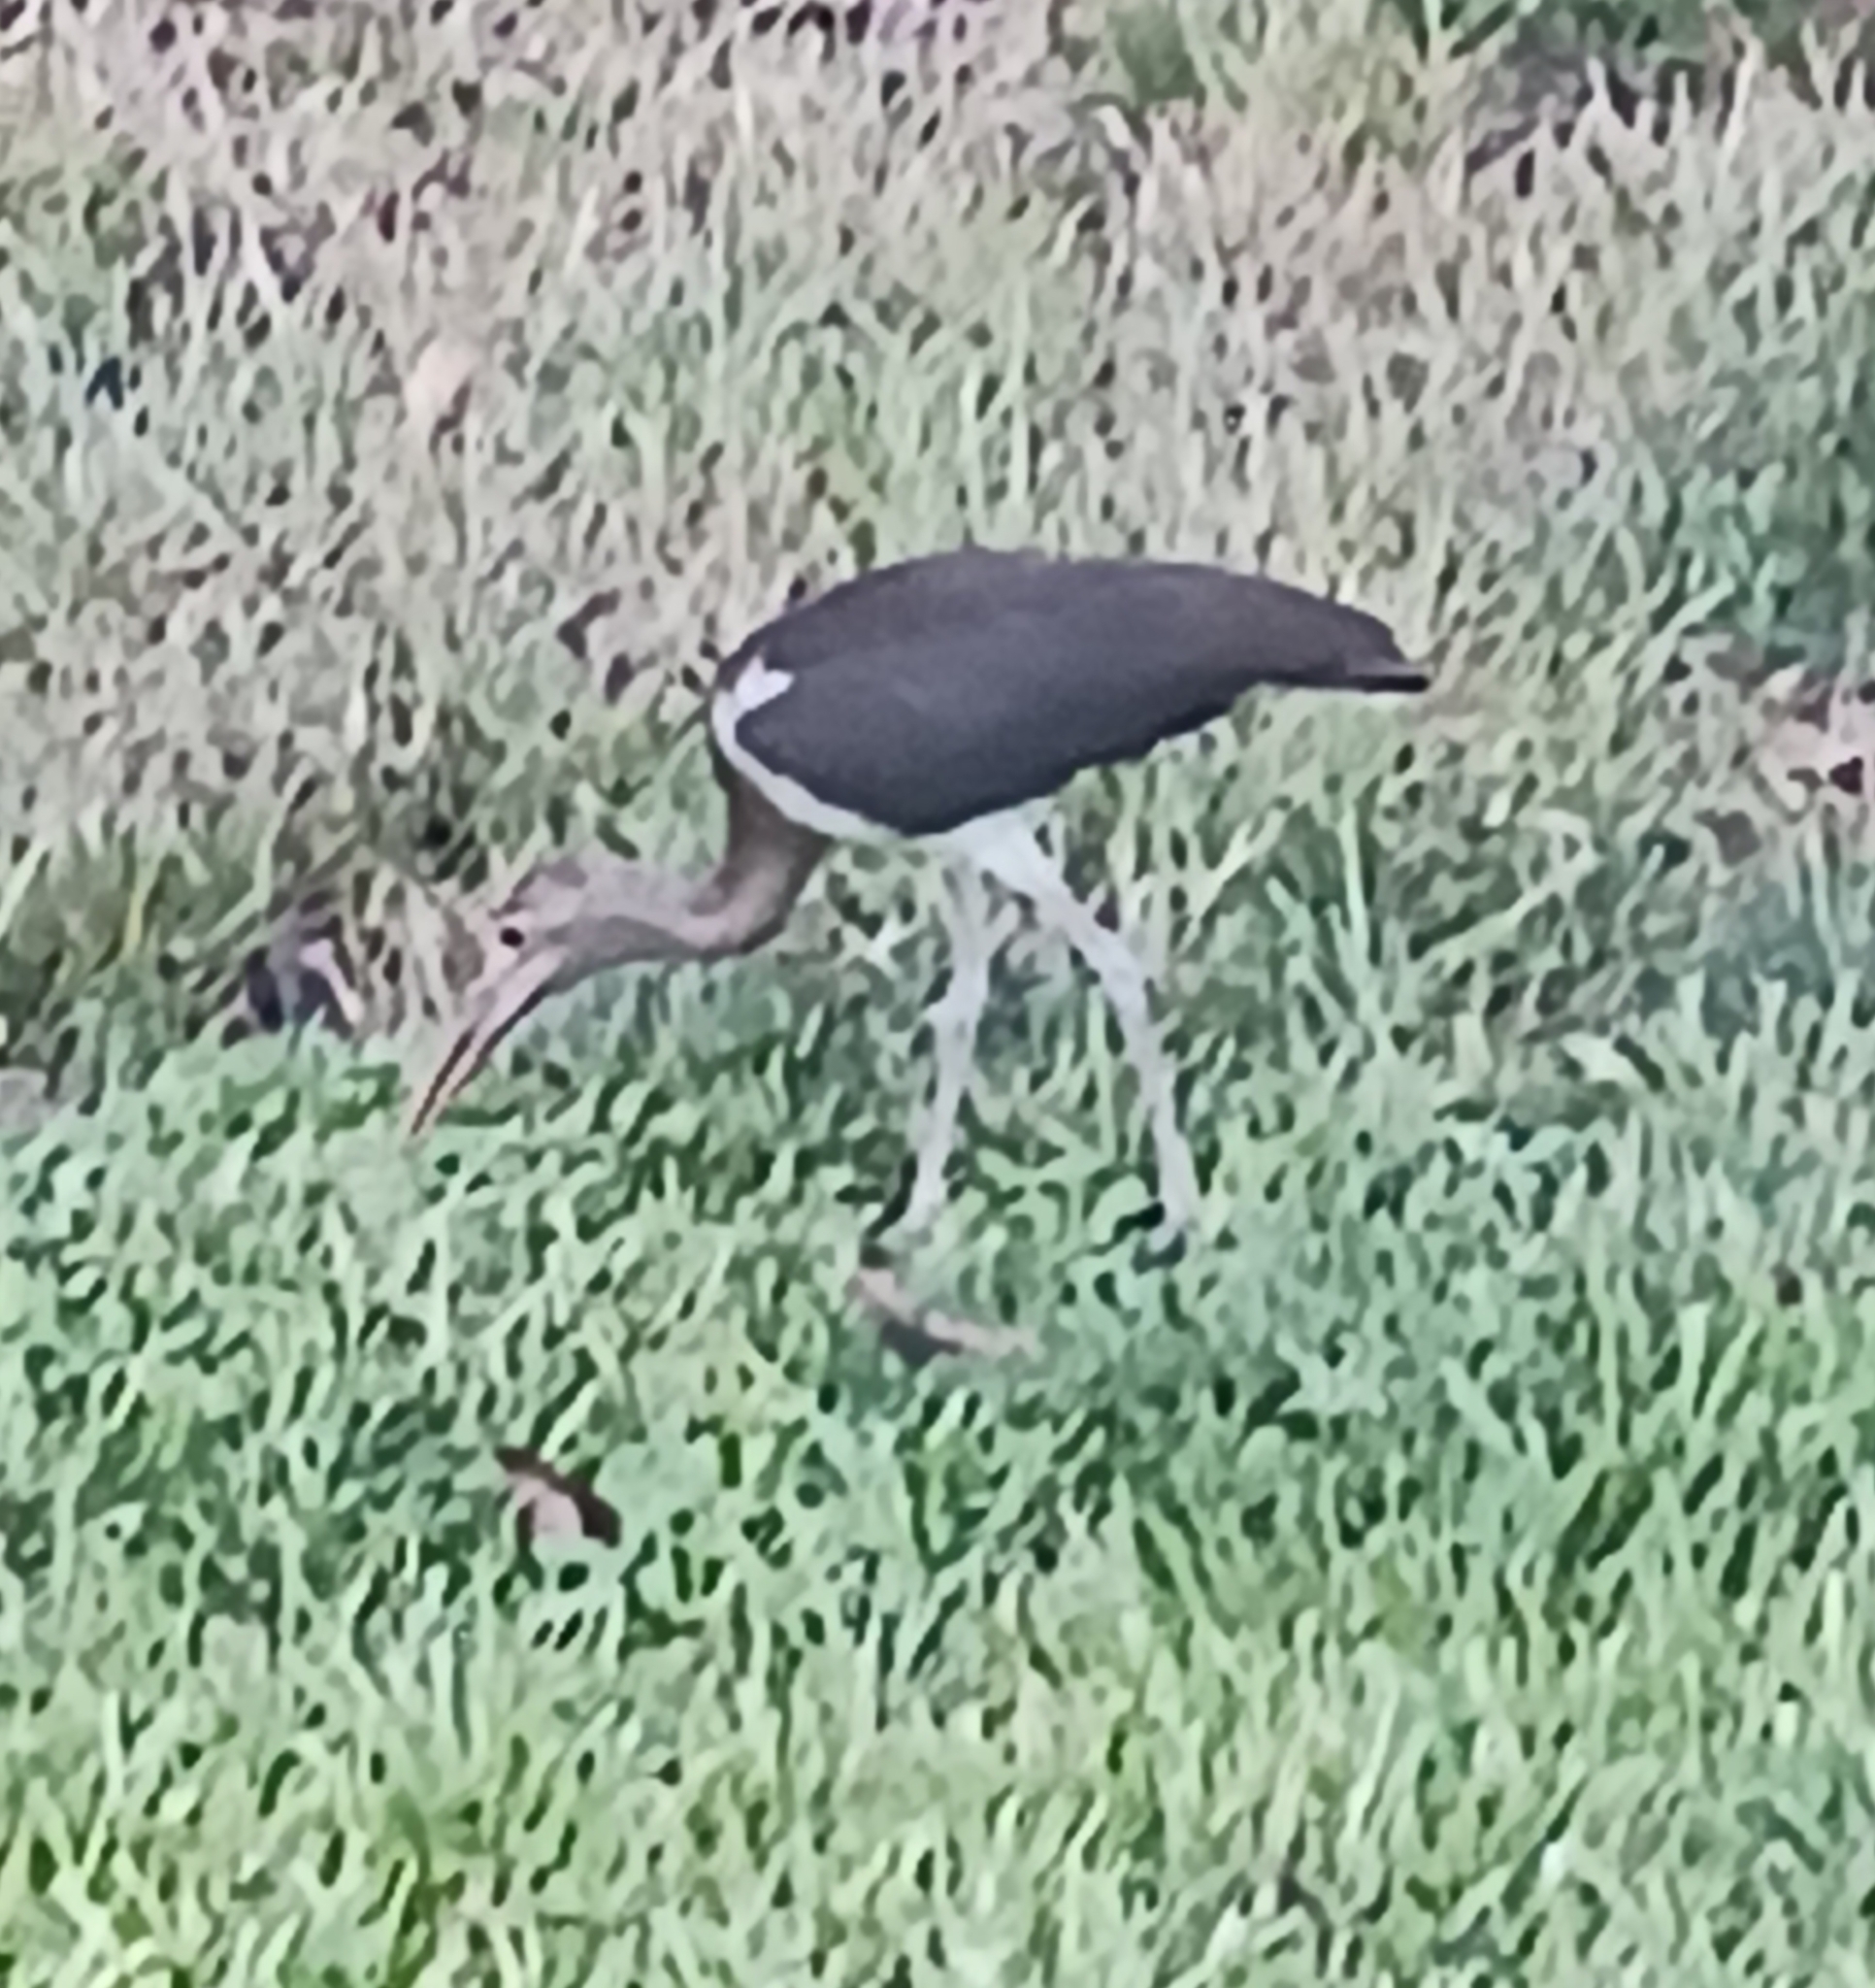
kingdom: Animalia
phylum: Chordata
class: Aves
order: Pelecaniformes
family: Threskiornithidae
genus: Eudocimus
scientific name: Eudocimus albus
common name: White ibis
